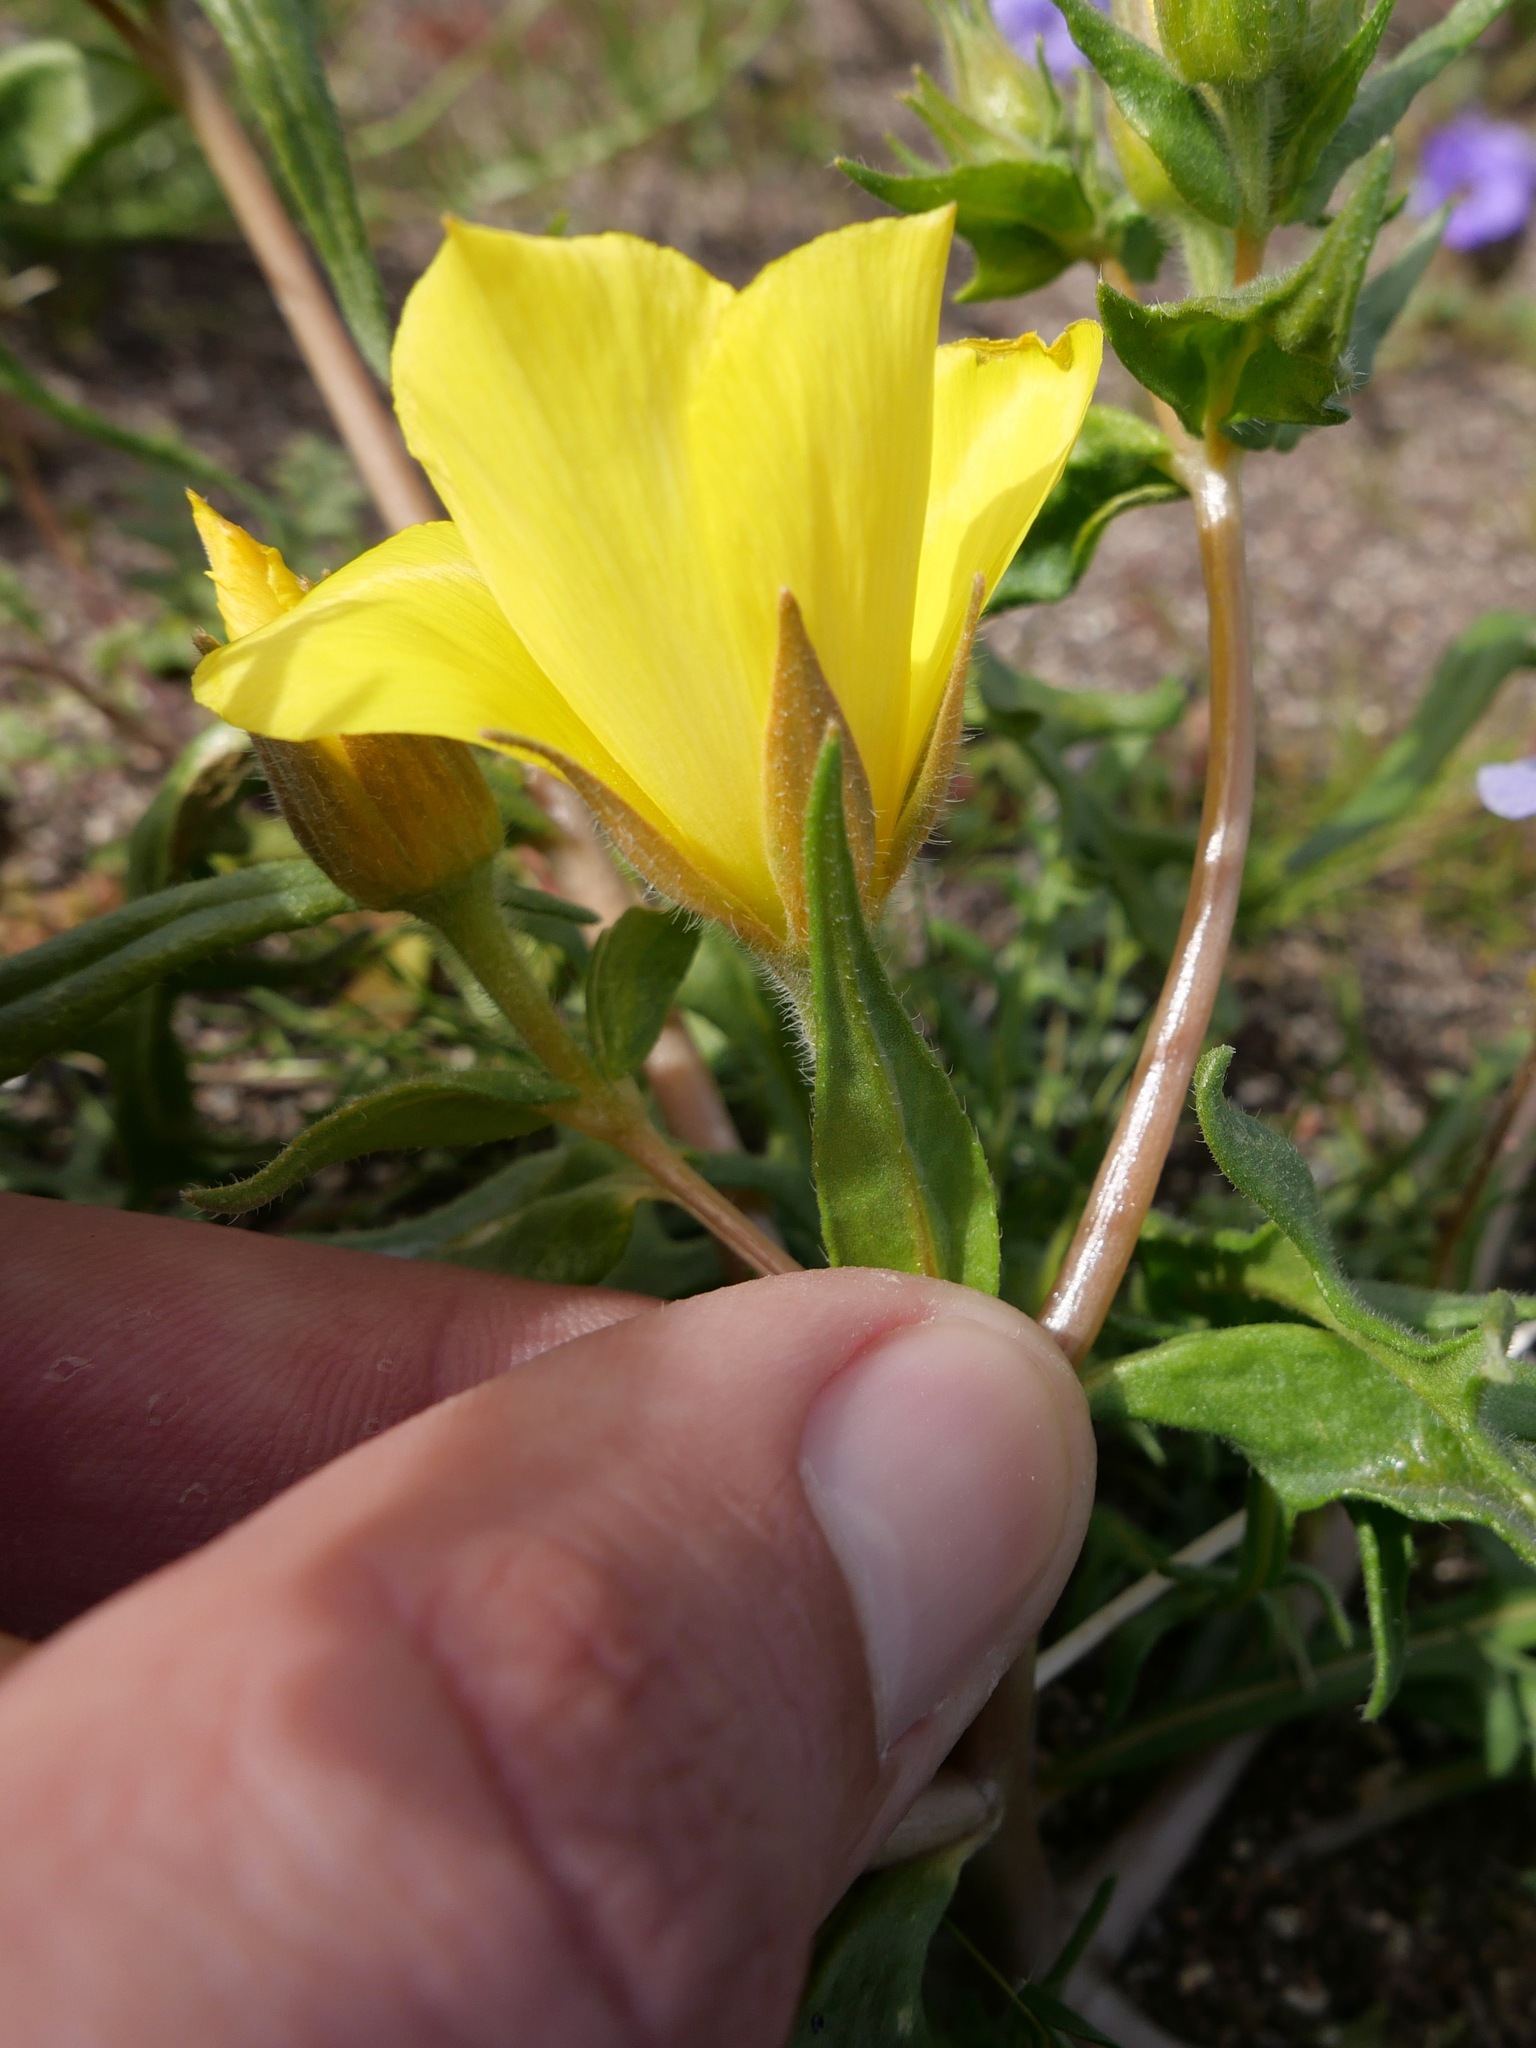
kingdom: Plantae
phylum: Tracheophyta
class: Magnoliopsida
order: Cornales
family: Loasaceae
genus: Mentzelia
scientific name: Mentzelia eremophila
